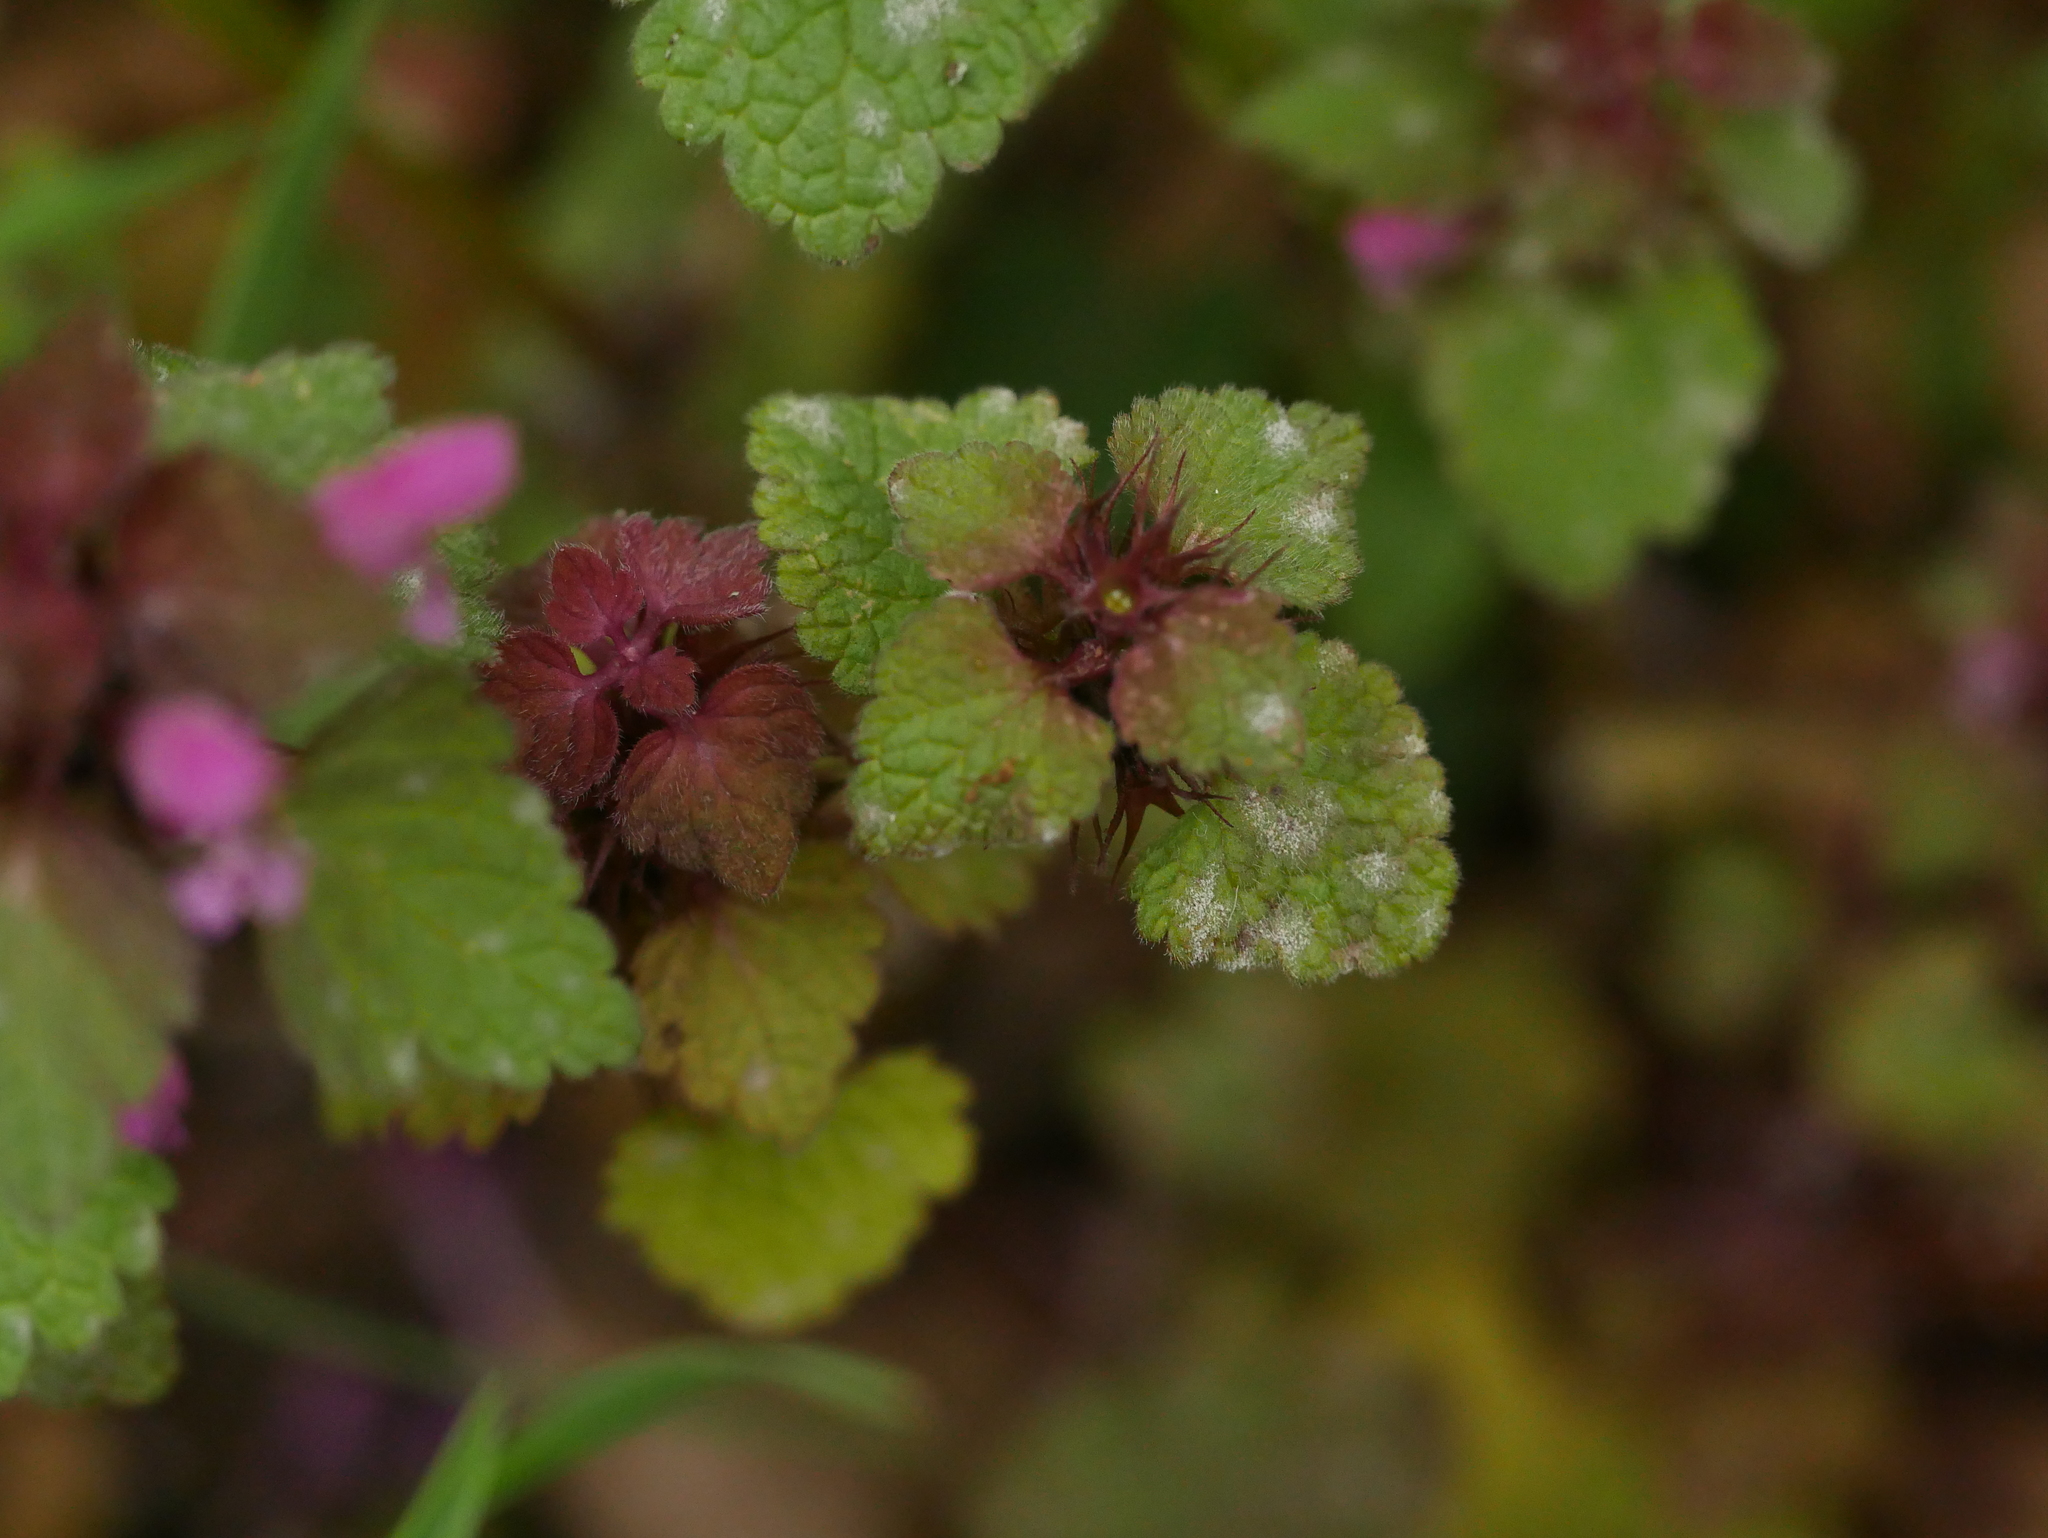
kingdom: Fungi
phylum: Ascomycota
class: Leotiomycetes
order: Helotiales
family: Erysiphaceae
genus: Neoerysiphe
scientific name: Neoerysiphe galeopsidis
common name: Mint mildew
